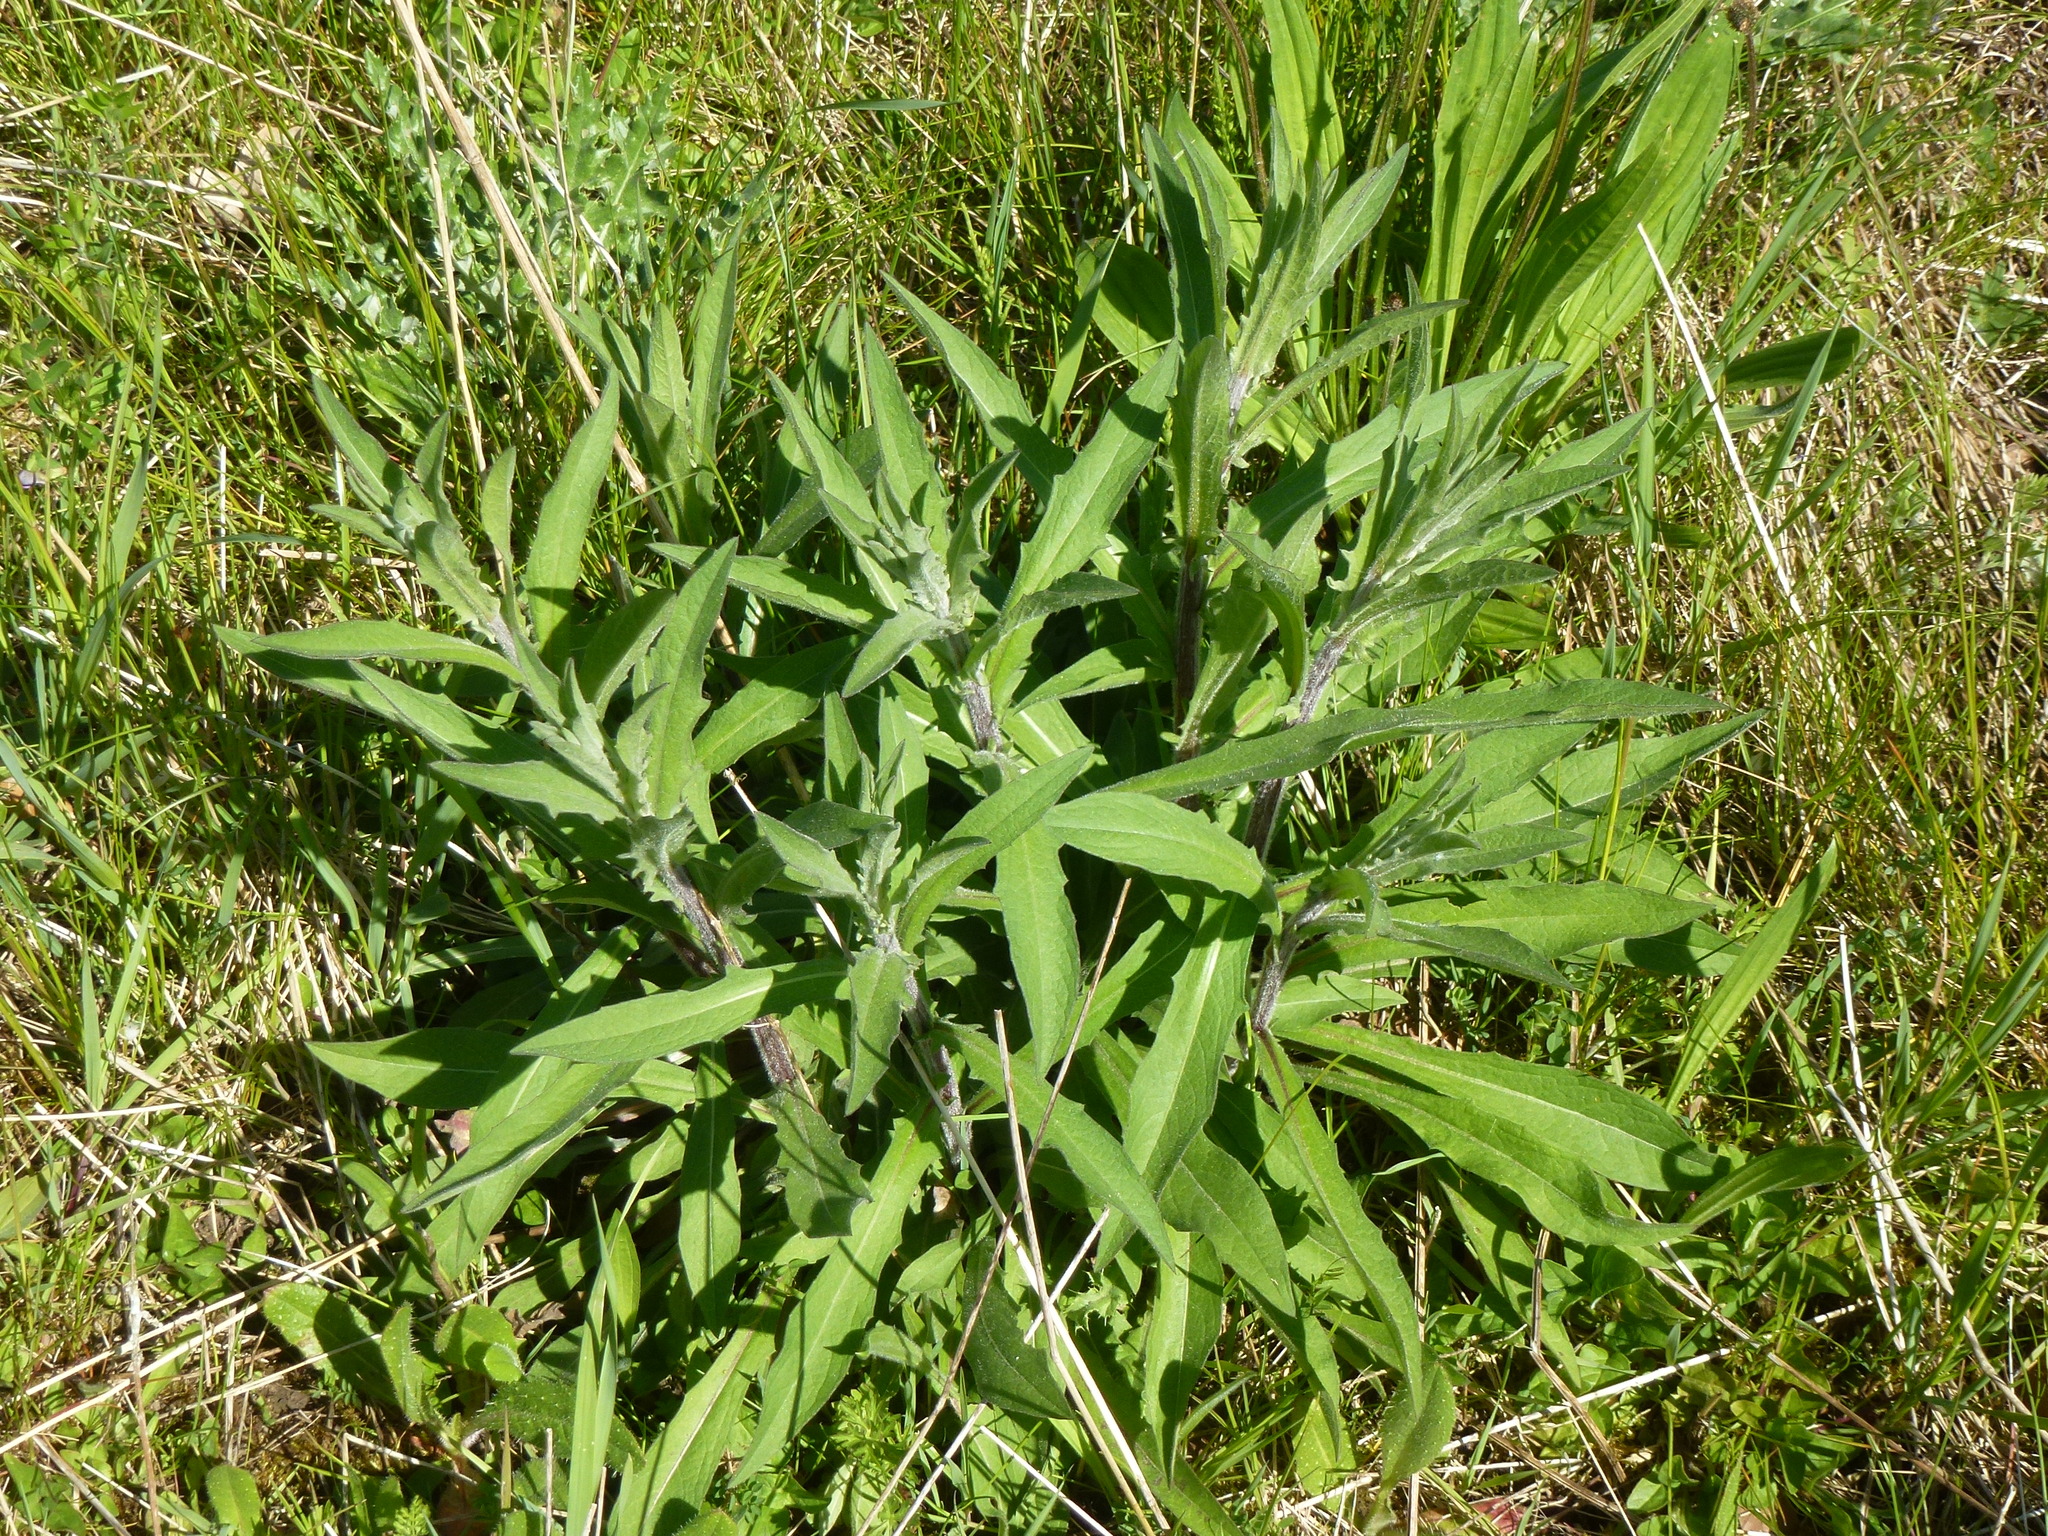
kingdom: Plantae
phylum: Tracheophyta
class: Magnoliopsida
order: Asterales
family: Asteraceae
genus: Centaurea
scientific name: Centaurea nigra
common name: Lesser knapweed
